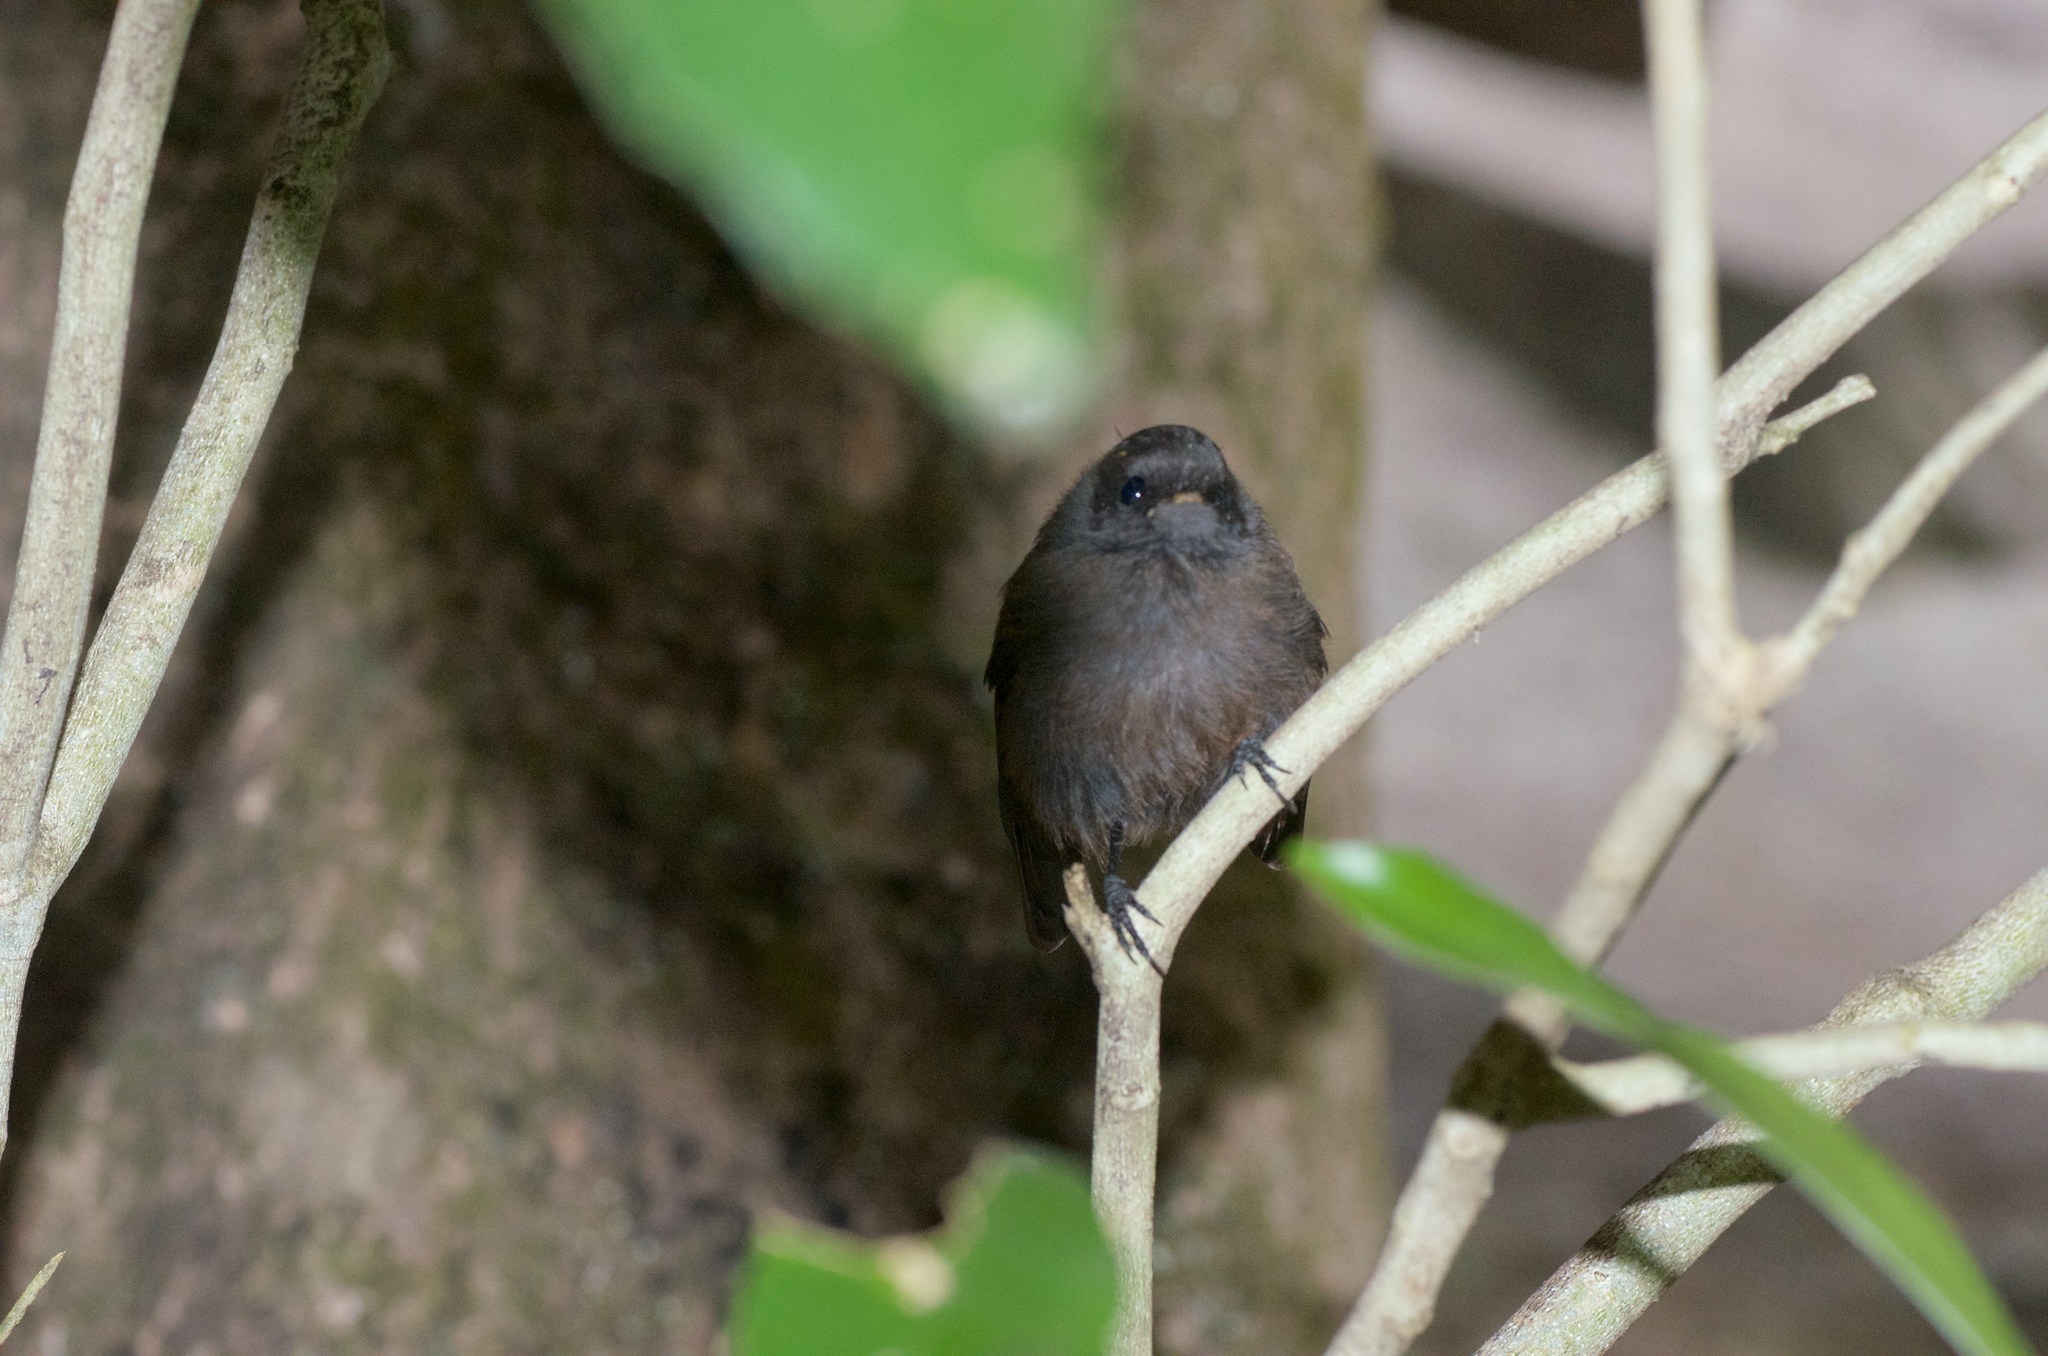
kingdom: Animalia
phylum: Chordata
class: Aves
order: Passeriformes
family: Rhipiduridae
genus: Rhipidura
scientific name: Rhipidura fuliginosa
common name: New zealand fantail
